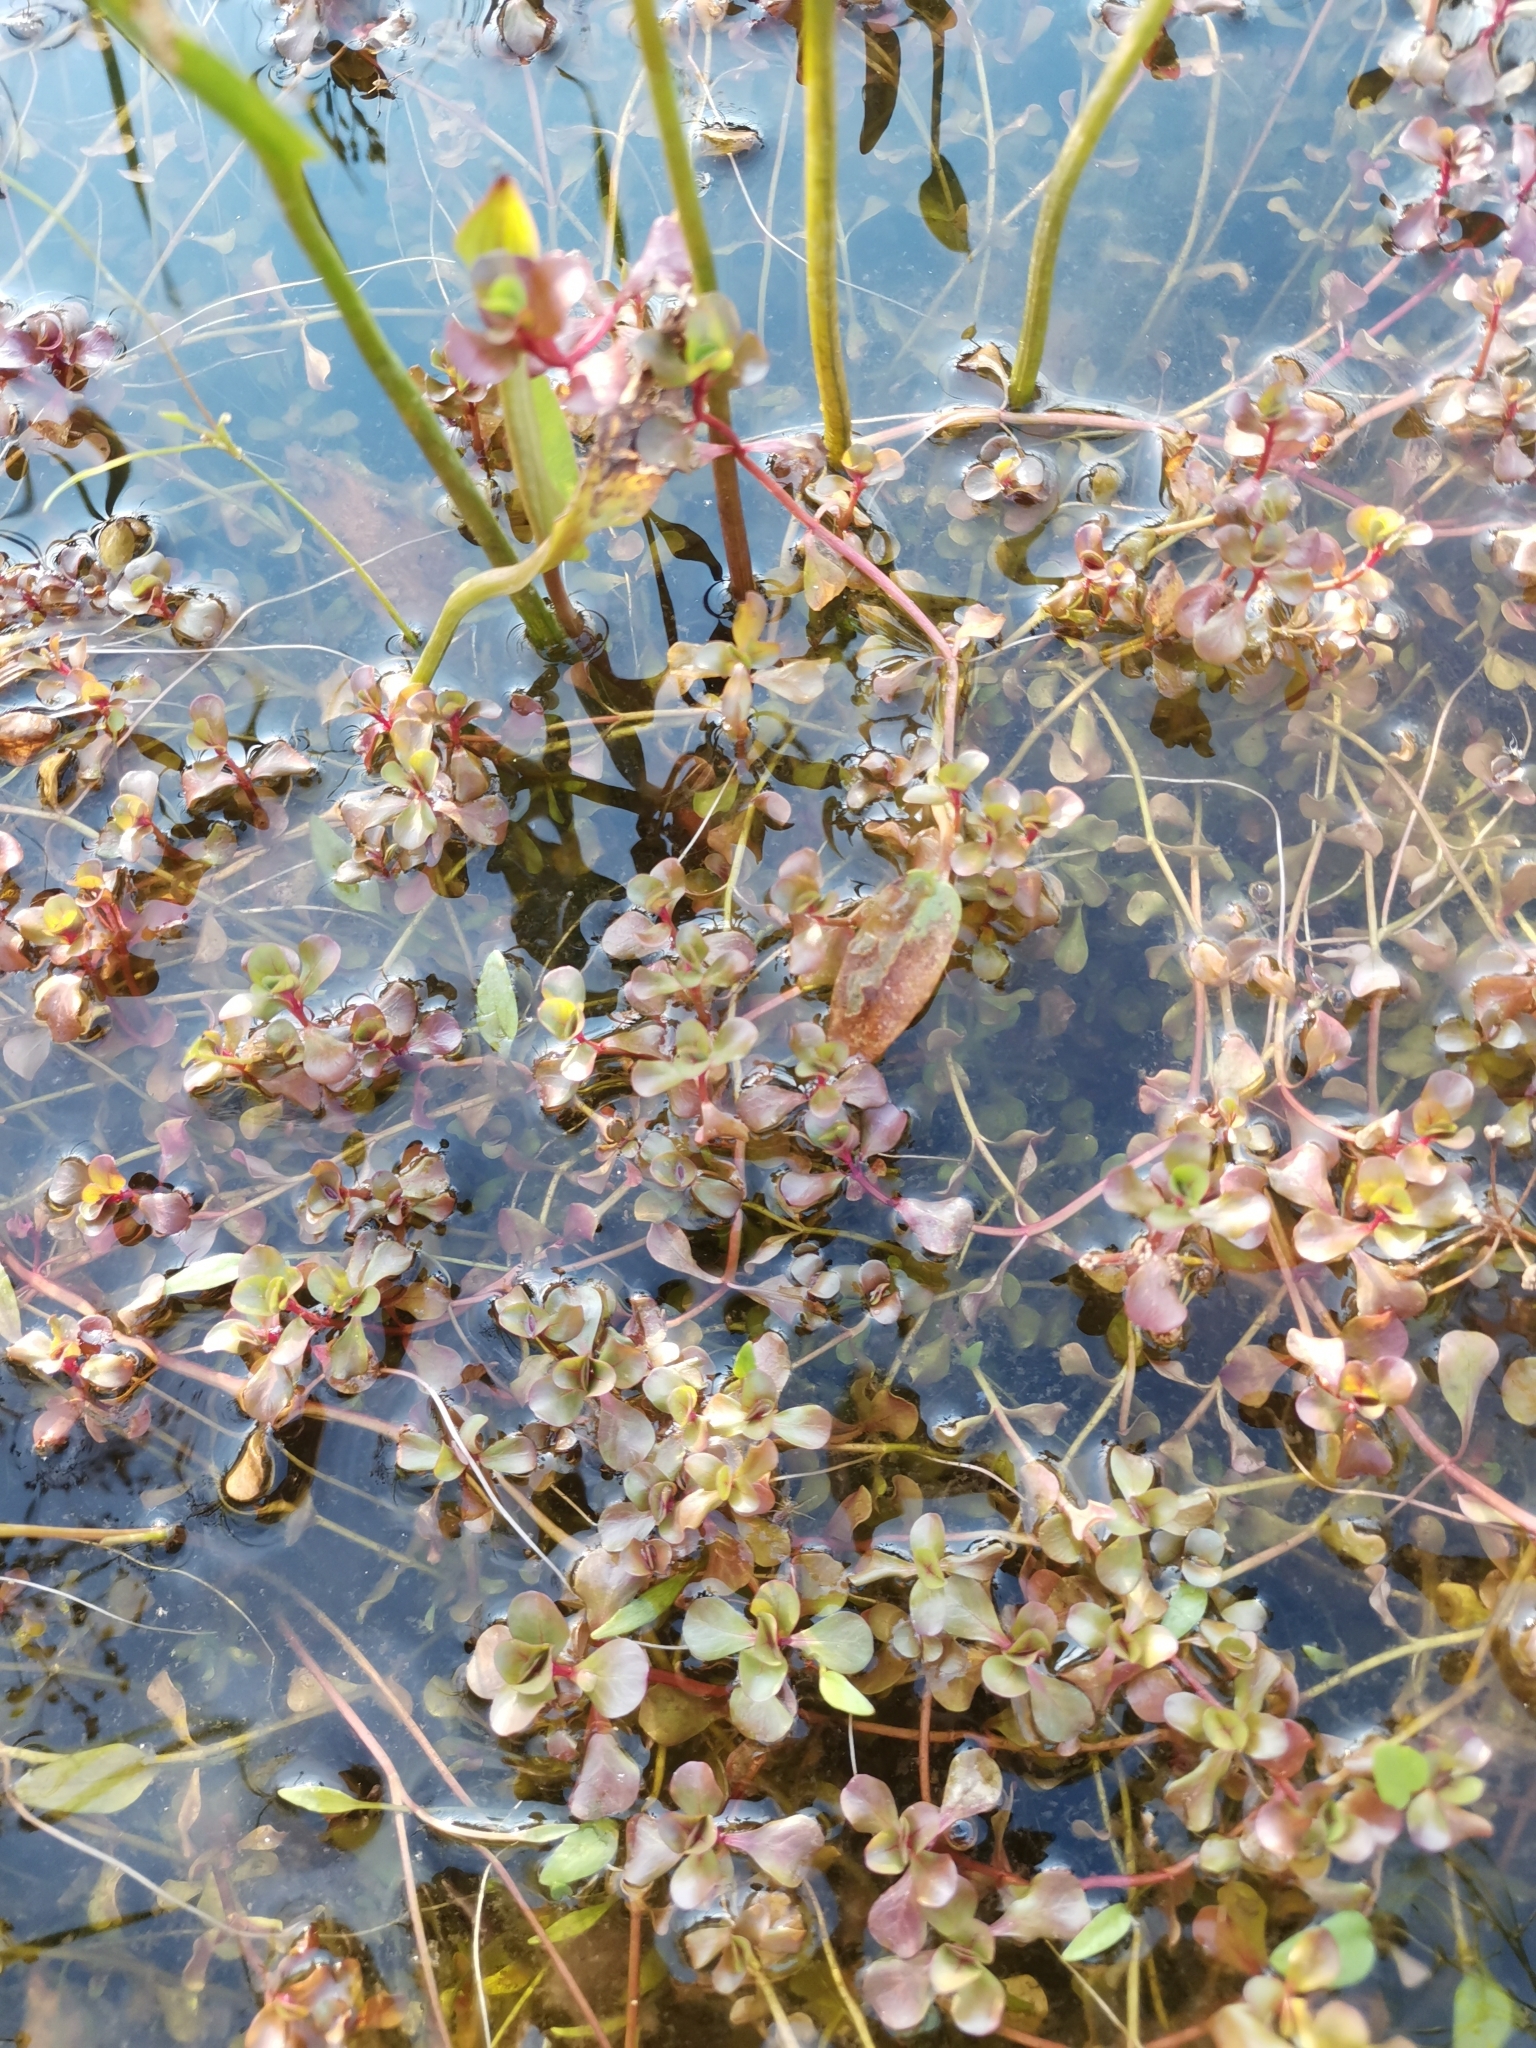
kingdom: Plantae
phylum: Tracheophyta
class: Magnoliopsida
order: Myrtales
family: Lythraceae
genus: Lythrum
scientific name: Lythrum portula
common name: Water purslane
